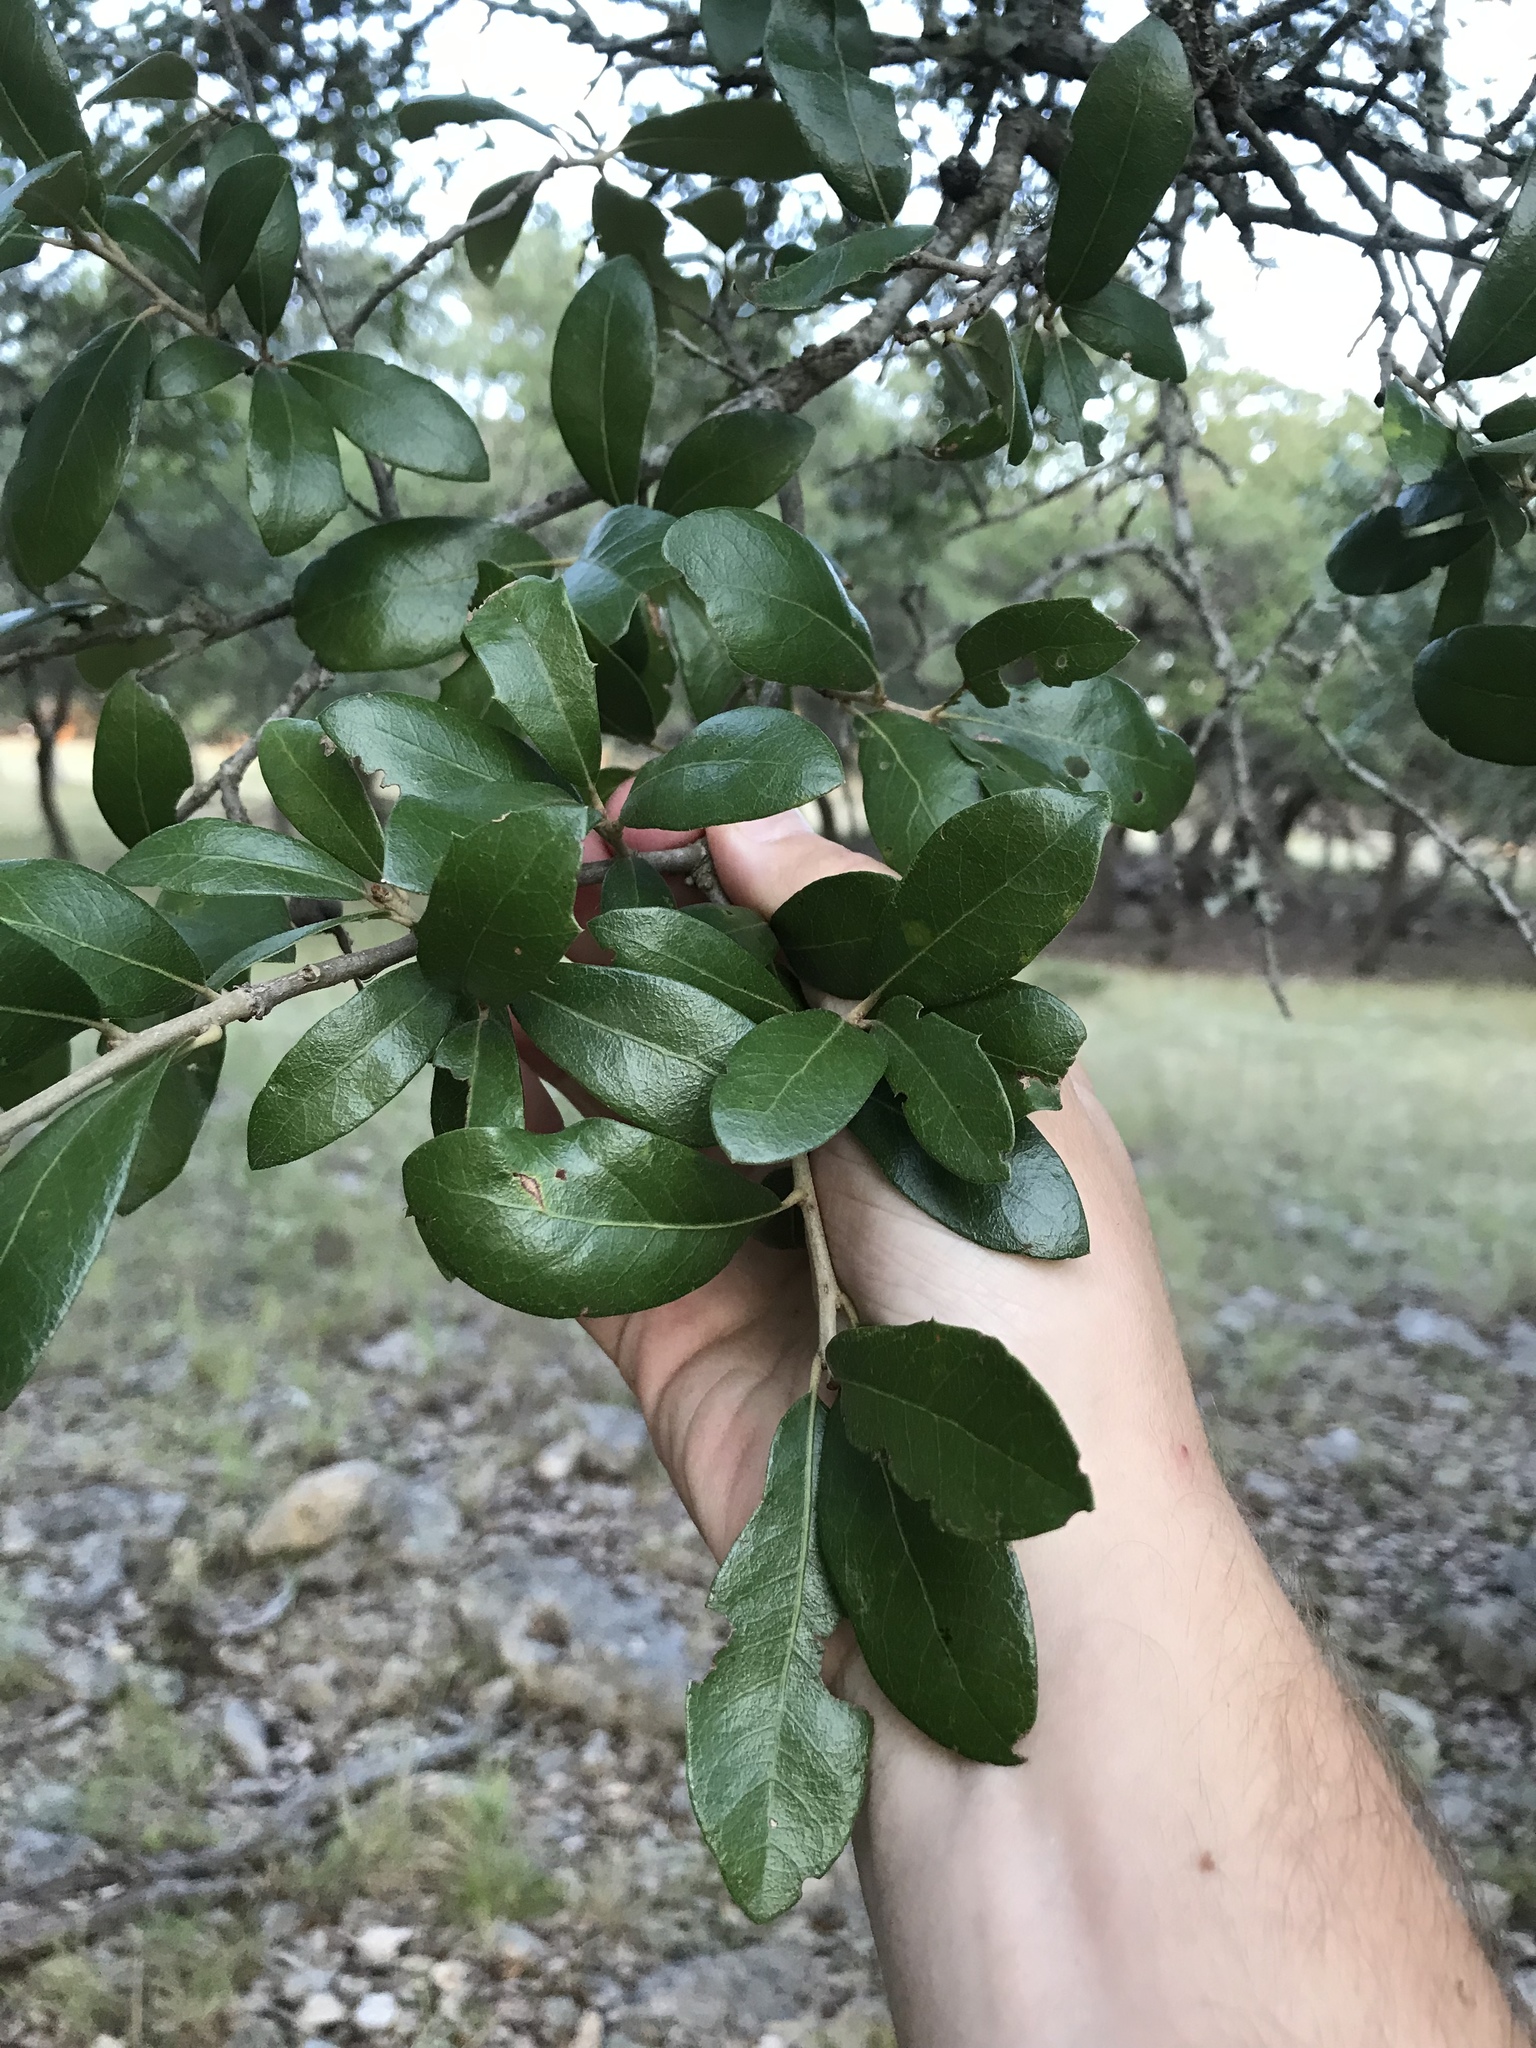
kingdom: Plantae
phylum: Tracheophyta
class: Magnoliopsida
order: Fagales
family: Fagaceae
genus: Quercus
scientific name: Quercus fusiformis
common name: Texas live oak
